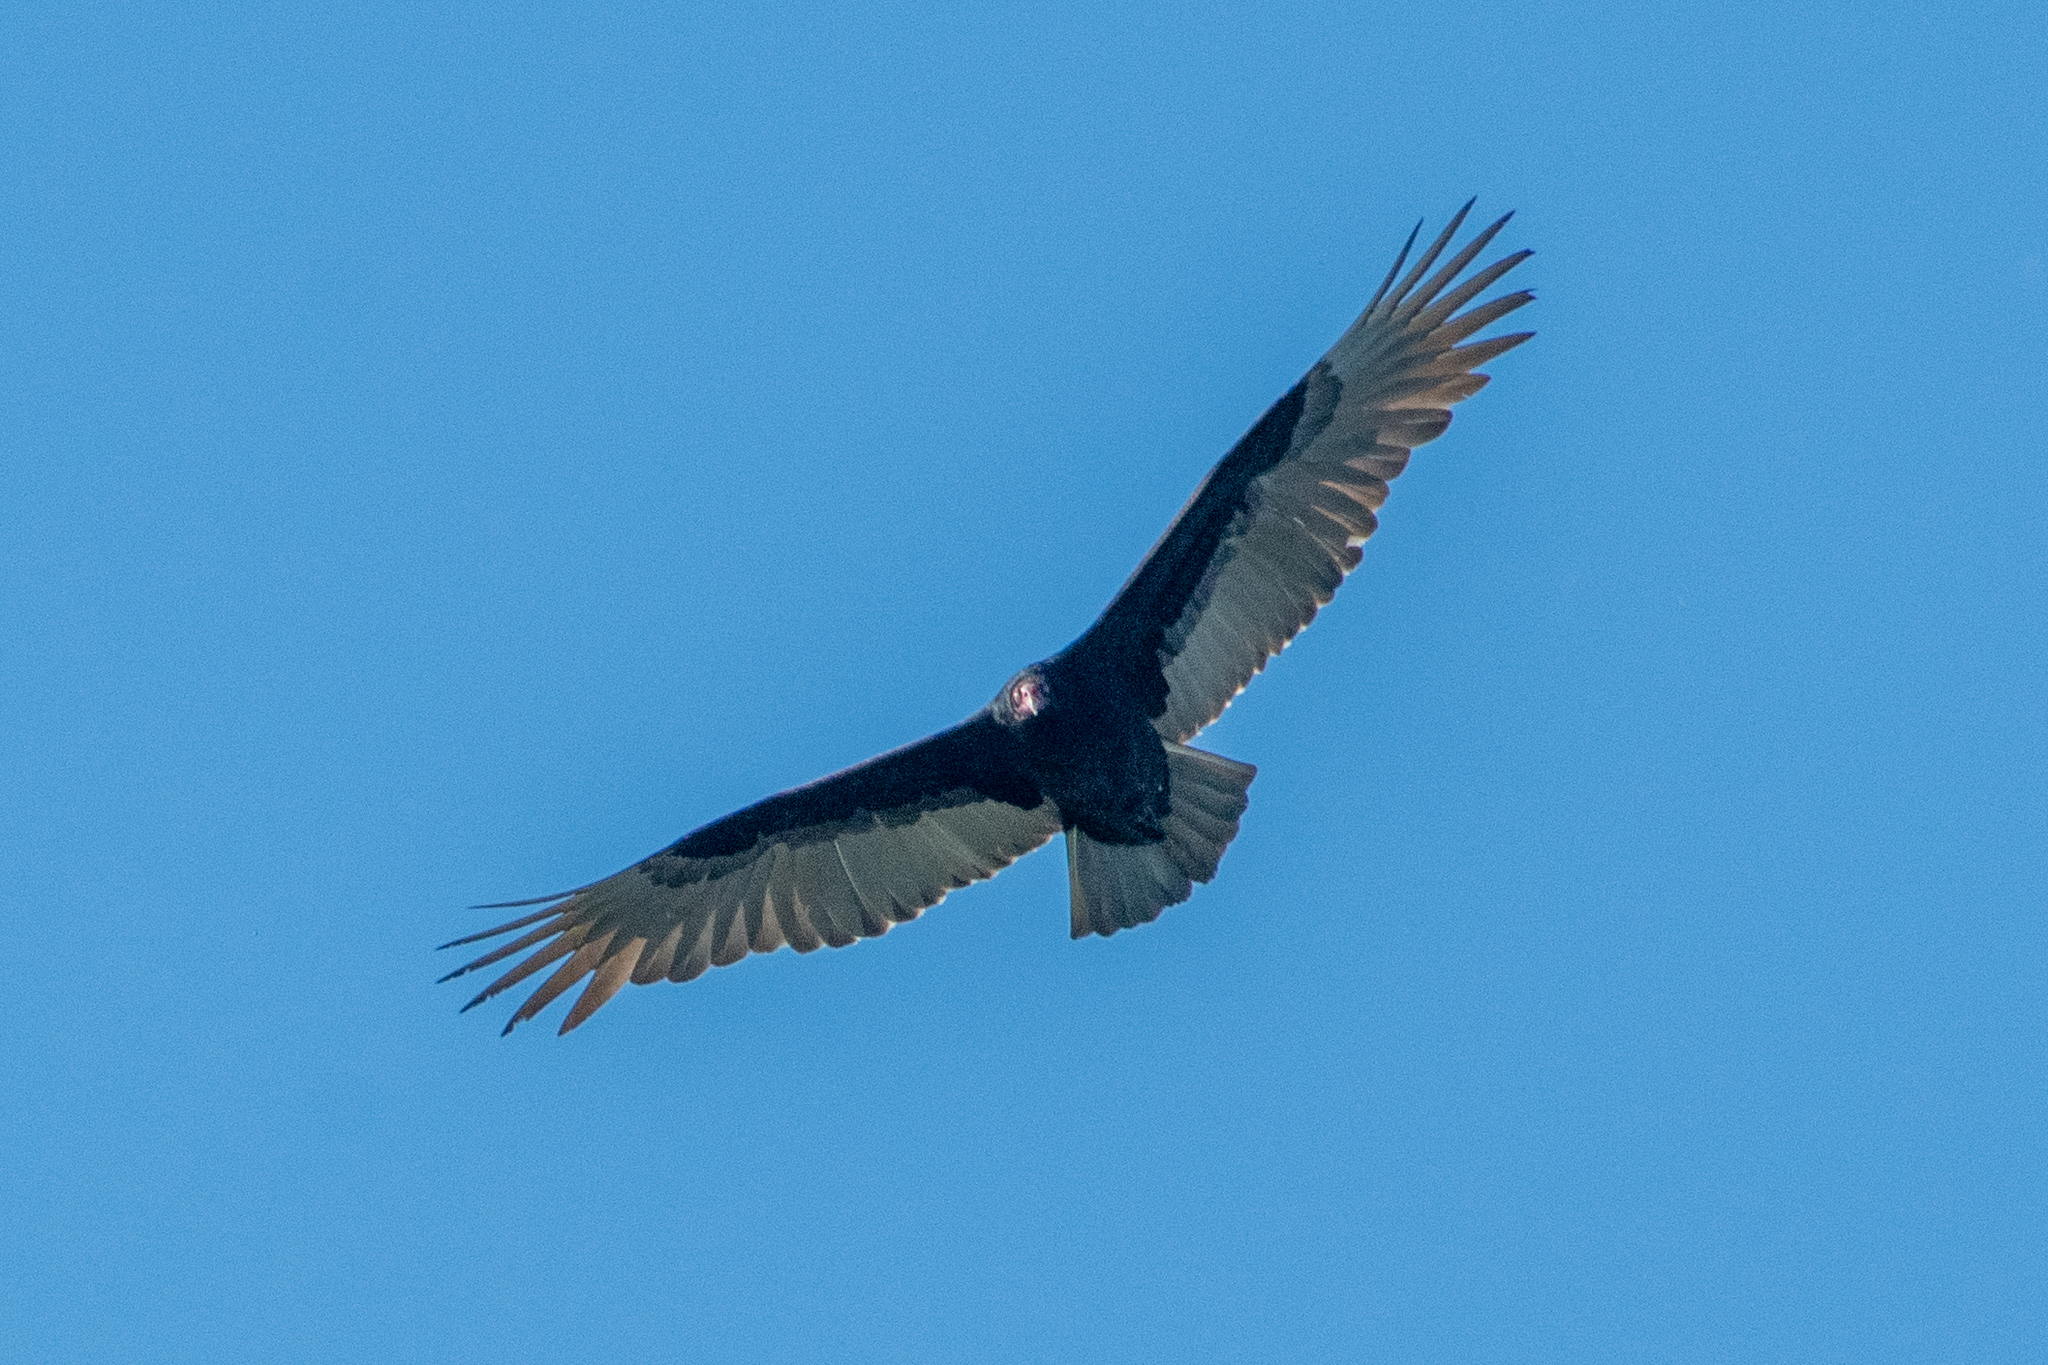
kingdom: Animalia
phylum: Chordata
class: Aves
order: Accipitriformes
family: Cathartidae
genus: Cathartes
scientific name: Cathartes aura
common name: Turkey vulture
